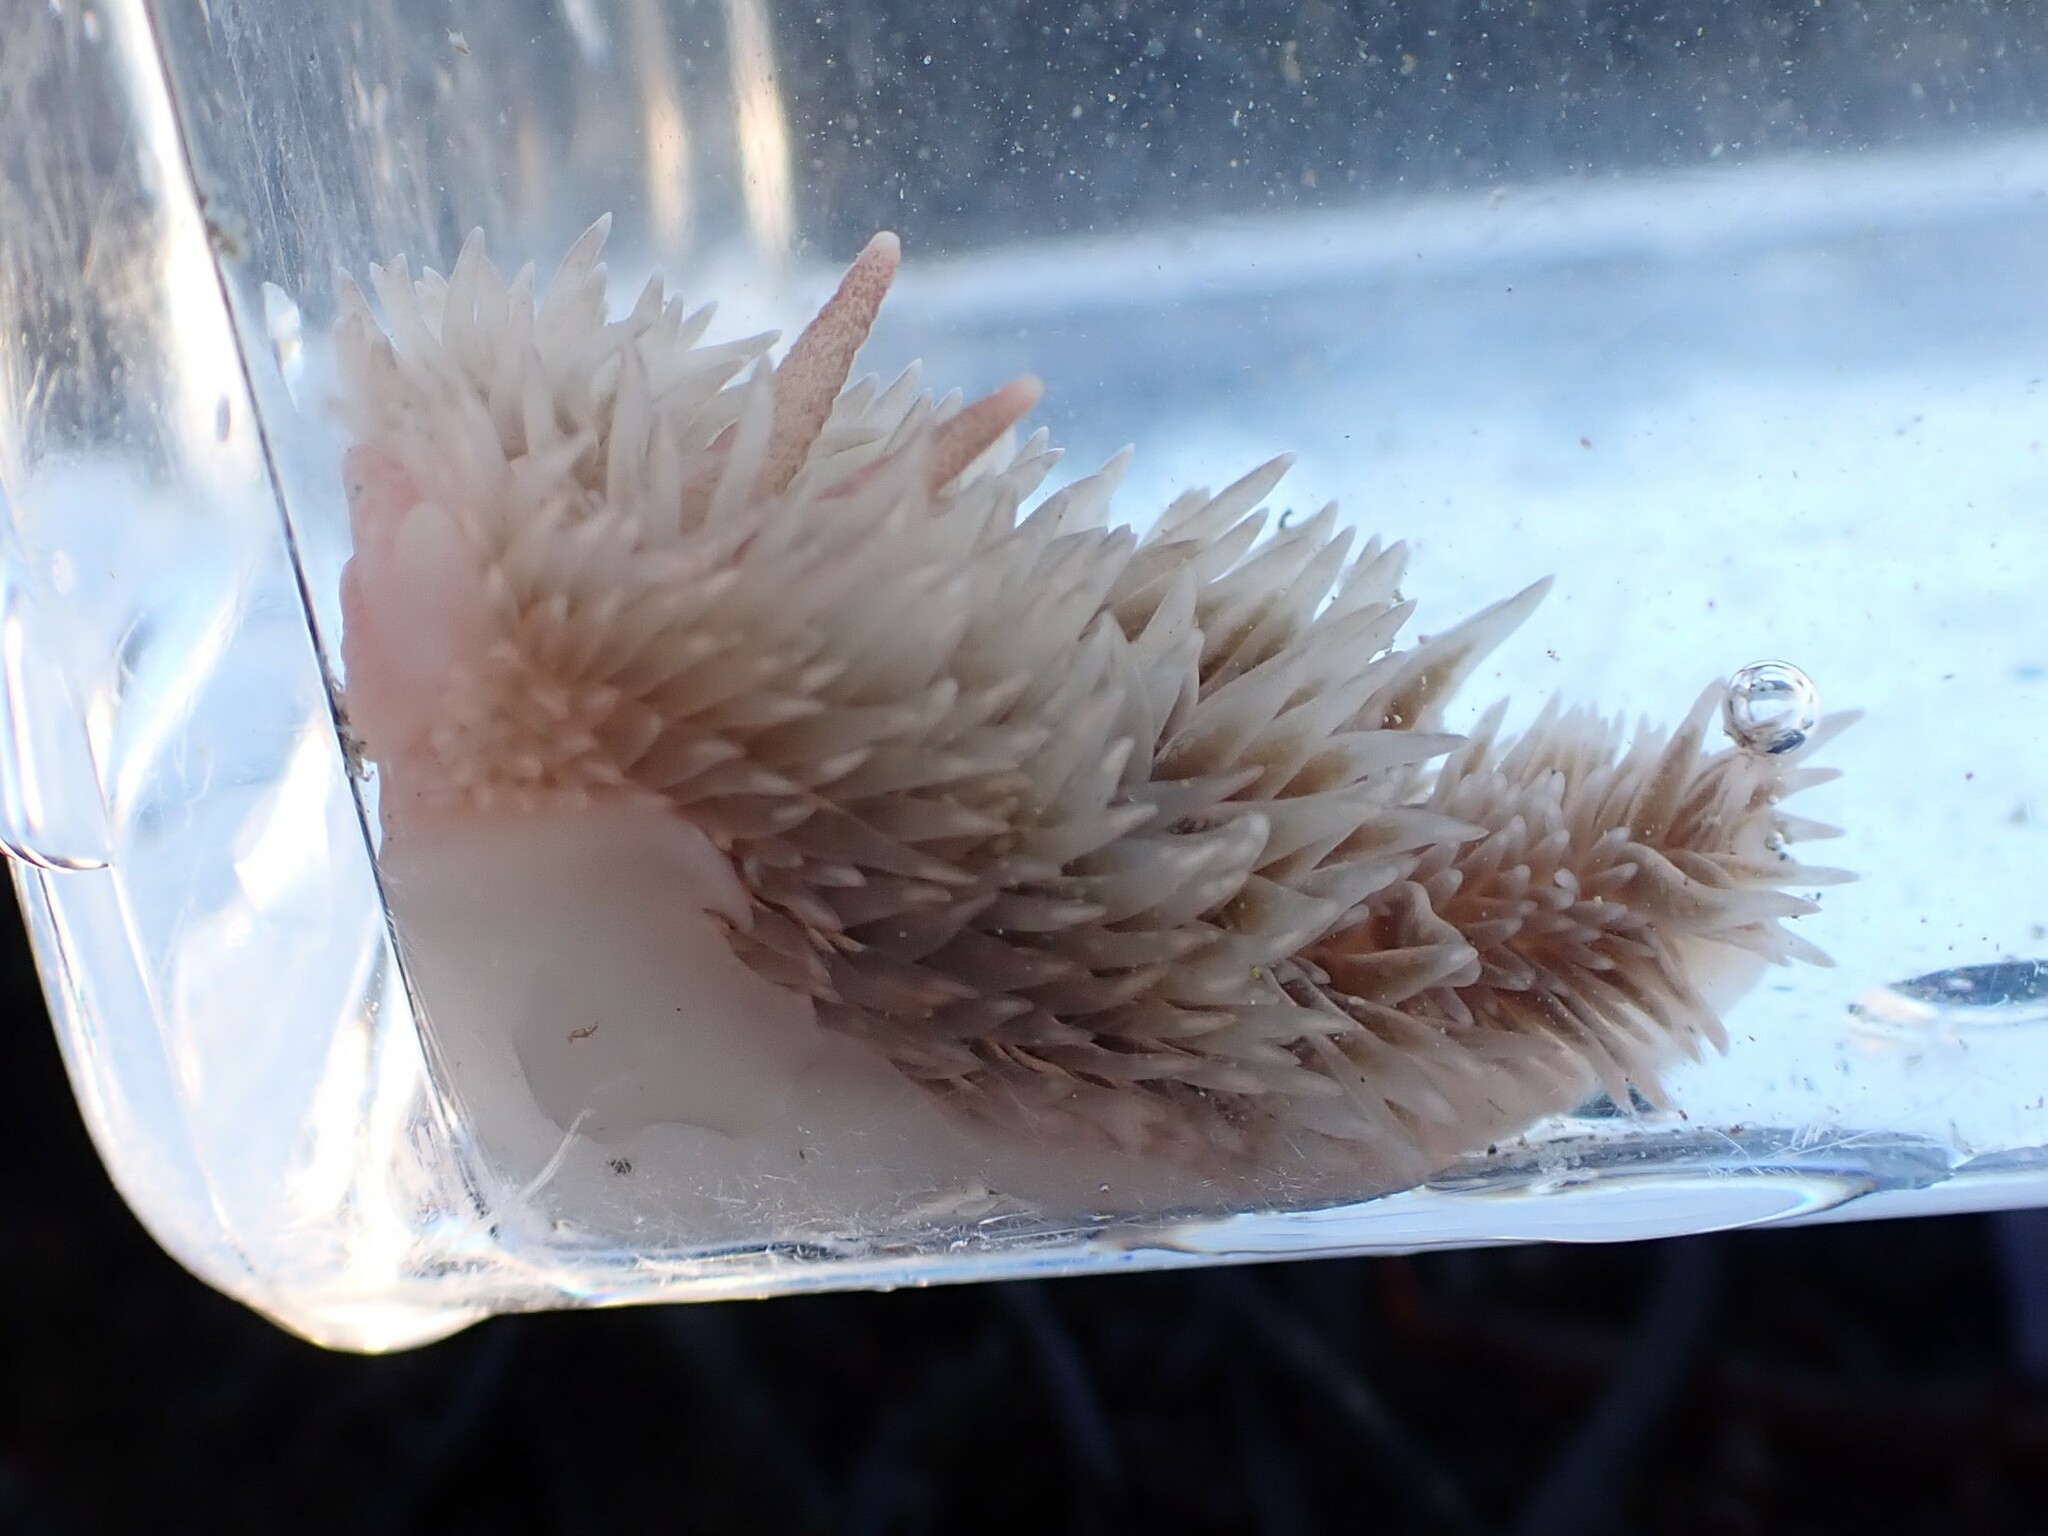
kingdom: Animalia
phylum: Mollusca
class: Gastropoda
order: Nudibranchia
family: Aeolidiidae
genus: Aeolidia
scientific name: Aeolidia loui
